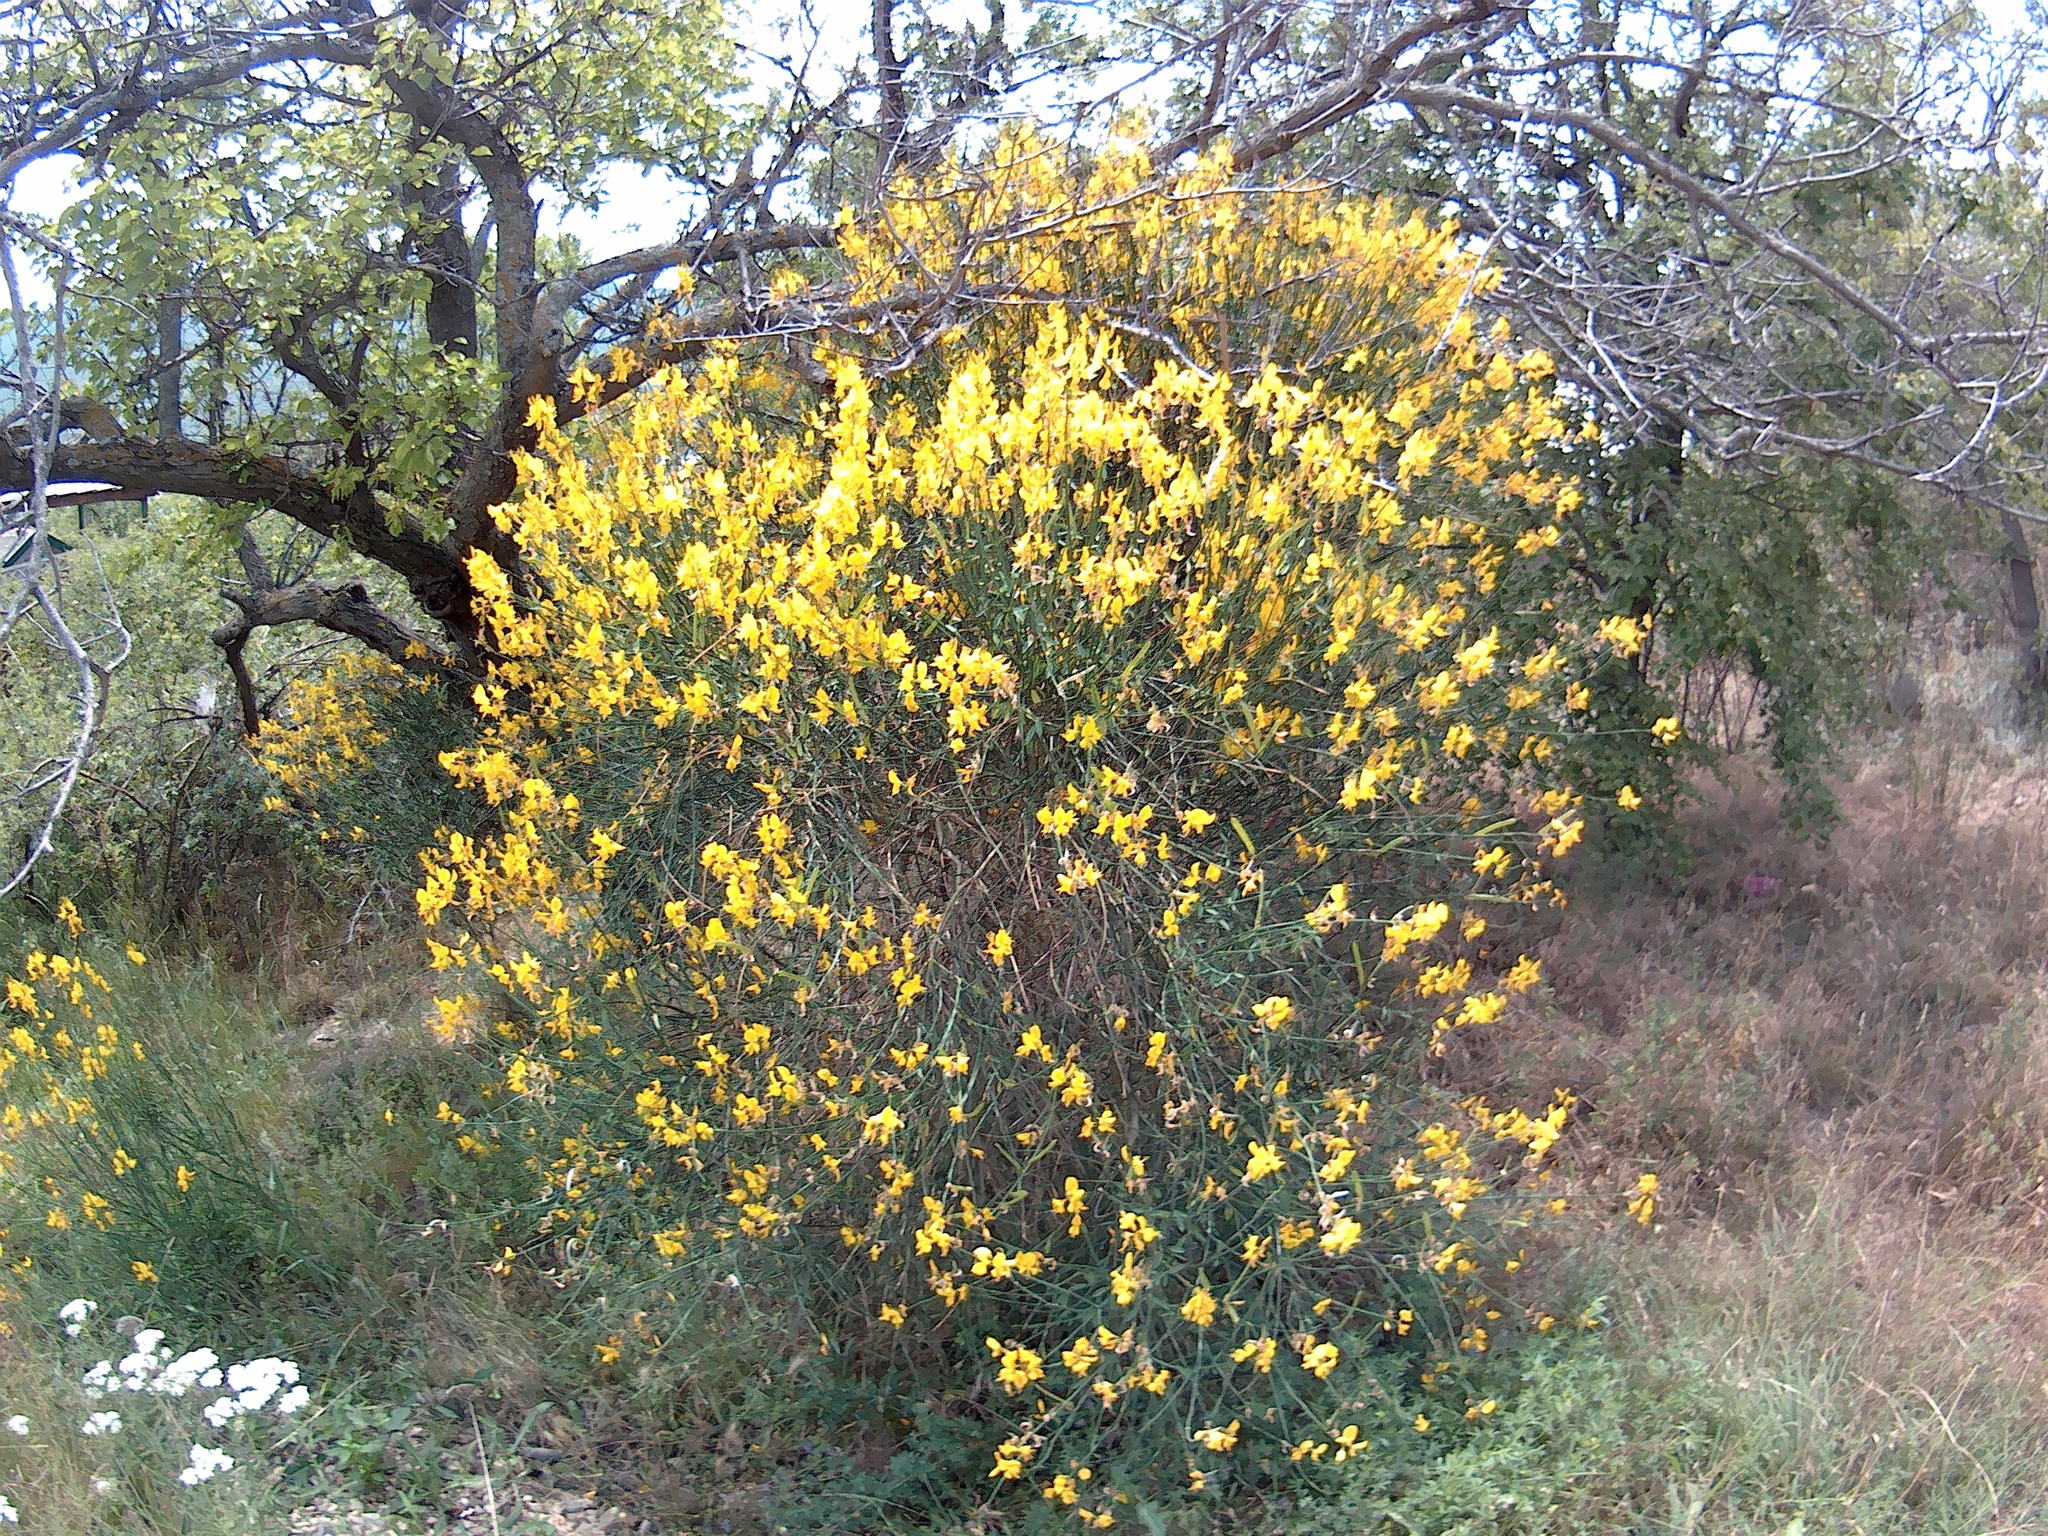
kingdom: Plantae
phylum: Tracheophyta
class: Magnoliopsida
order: Fabales
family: Fabaceae
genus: Spartium
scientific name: Spartium junceum
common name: Spanish broom
